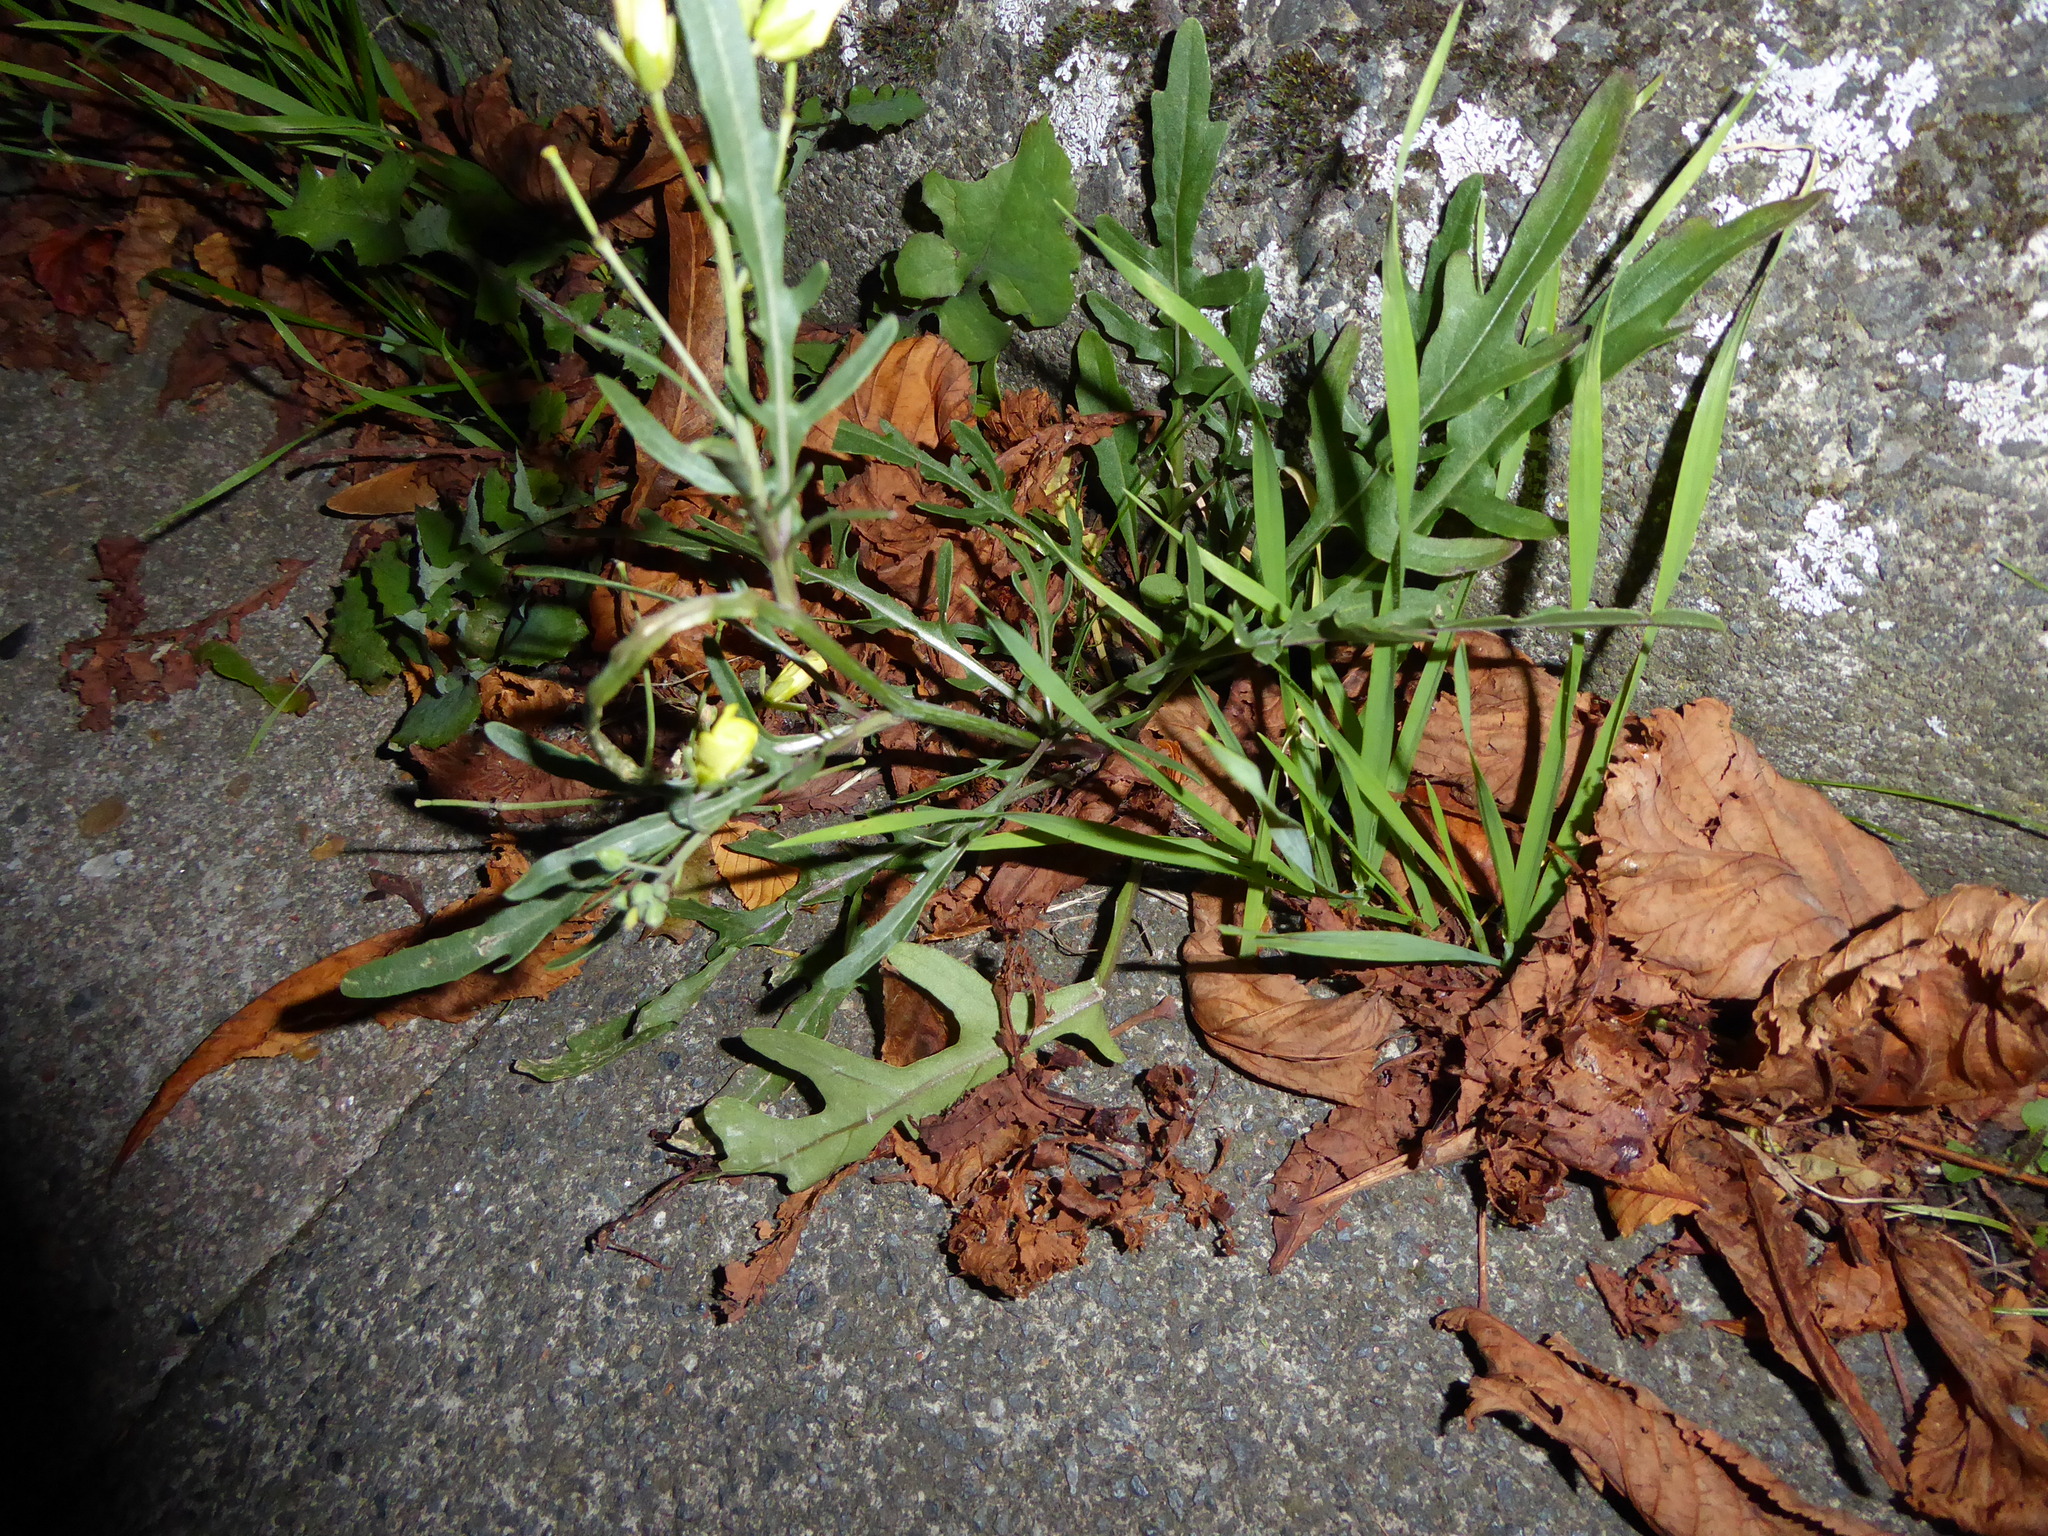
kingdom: Plantae
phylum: Tracheophyta
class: Magnoliopsida
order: Brassicales
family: Brassicaceae
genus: Diplotaxis
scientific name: Diplotaxis tenuifolia
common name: Perennial wall-rocket
